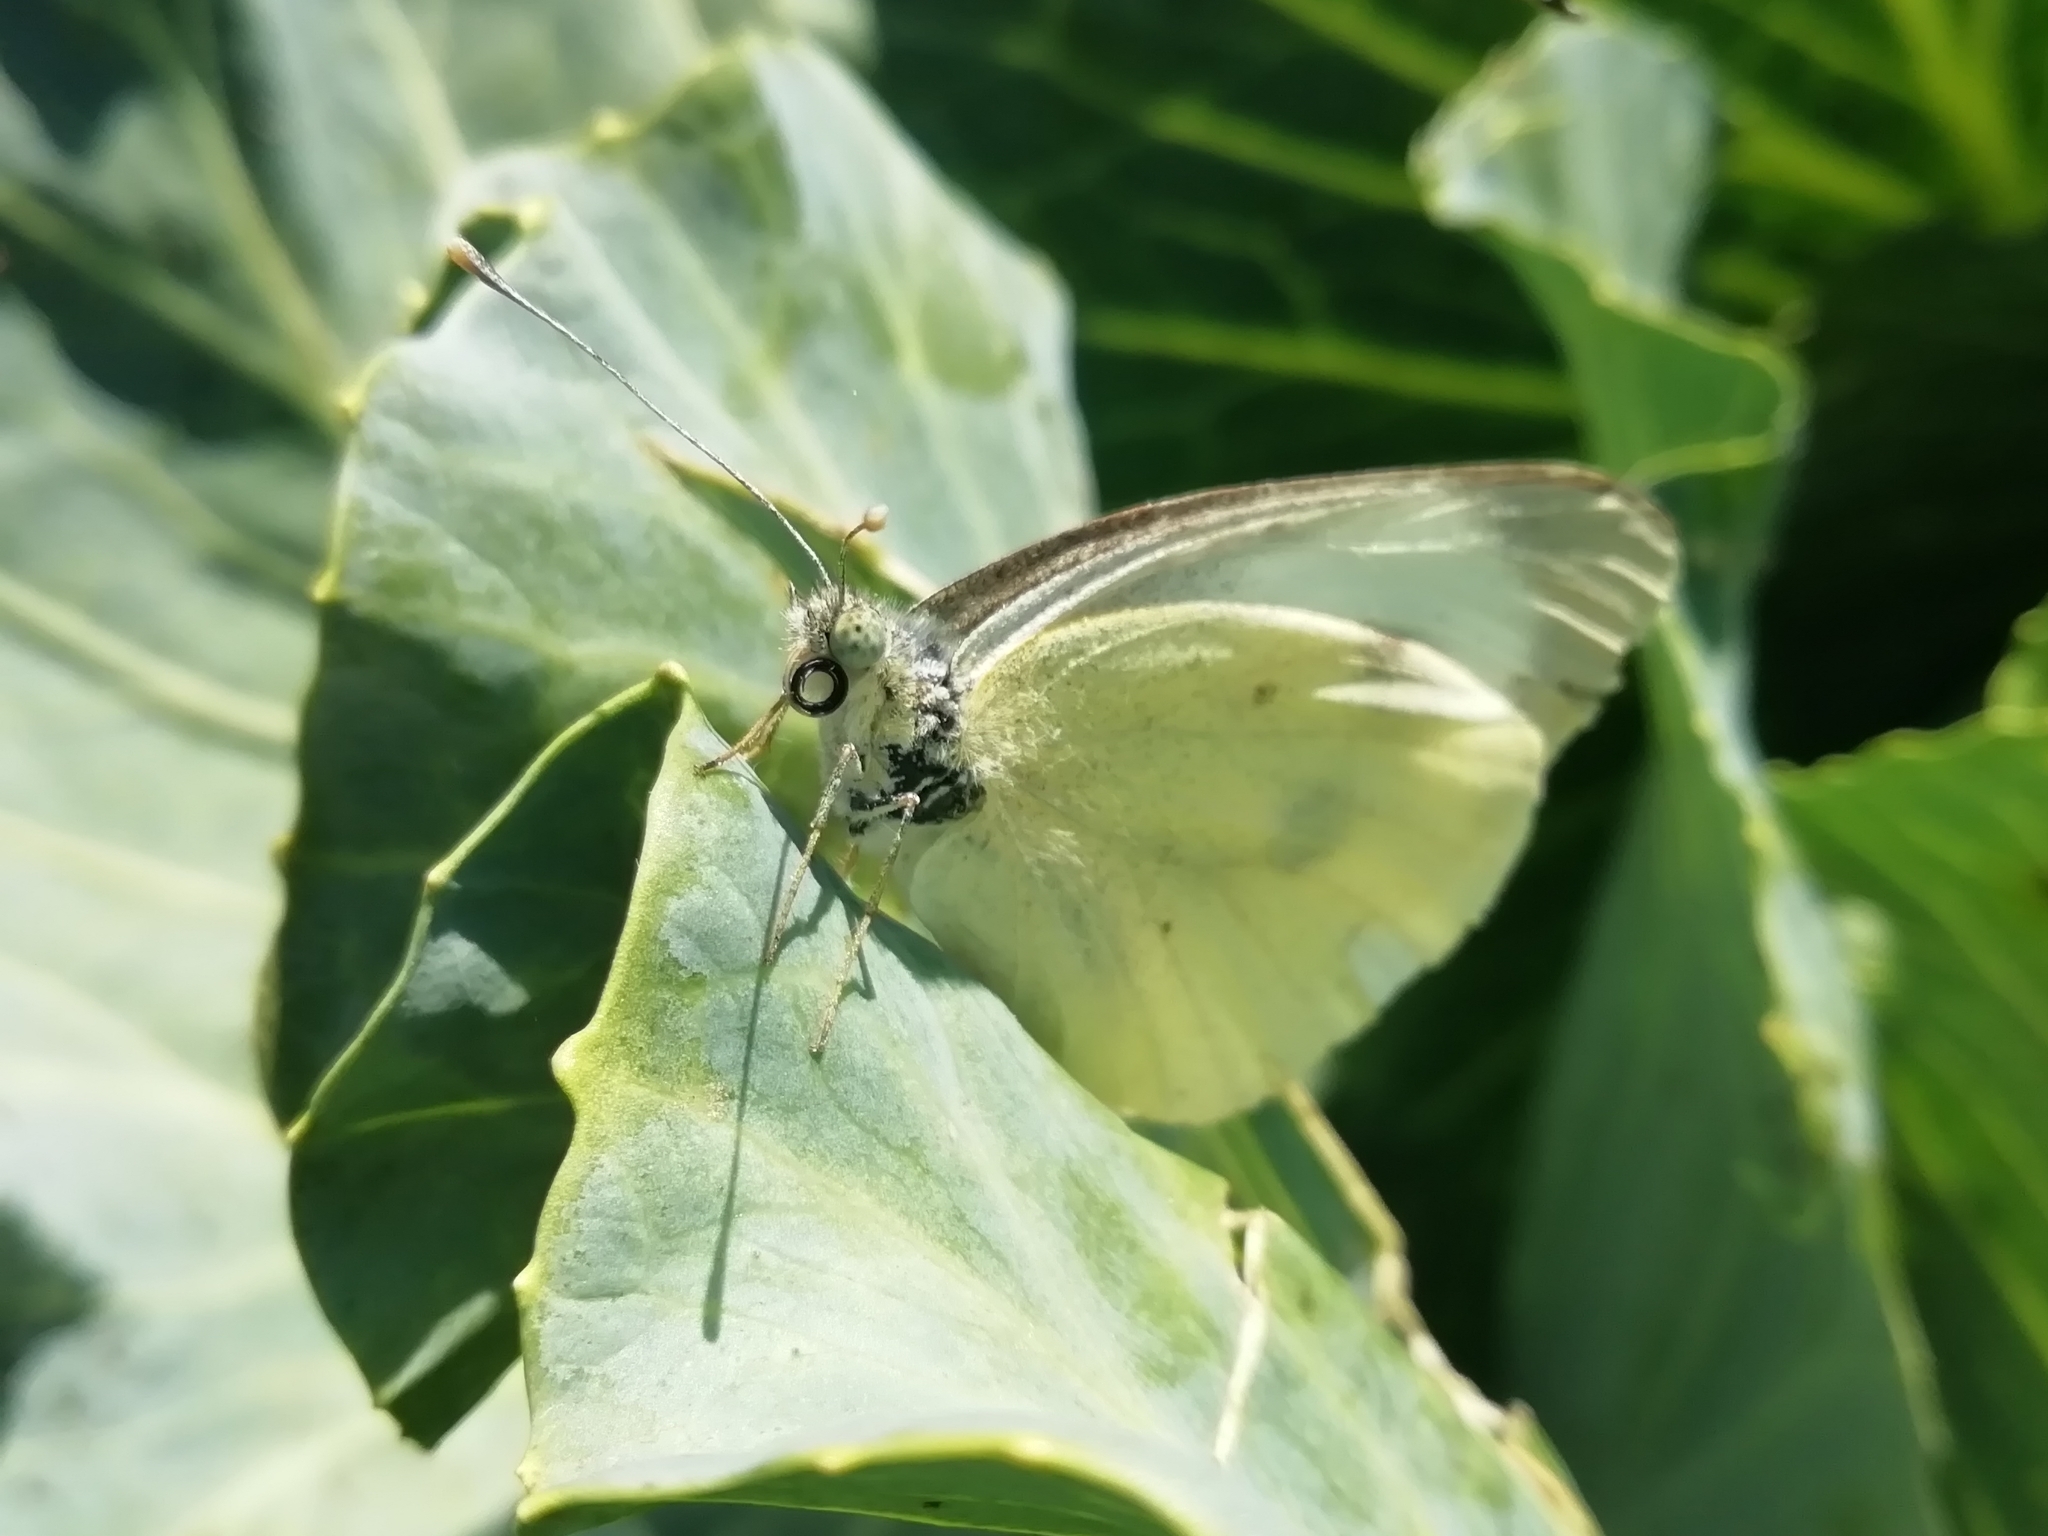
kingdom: Animalia
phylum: Arthropoda
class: Insecta
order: Lepidoptera
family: Pieridae
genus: Pieris
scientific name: Pieris brassicae
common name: Large white
